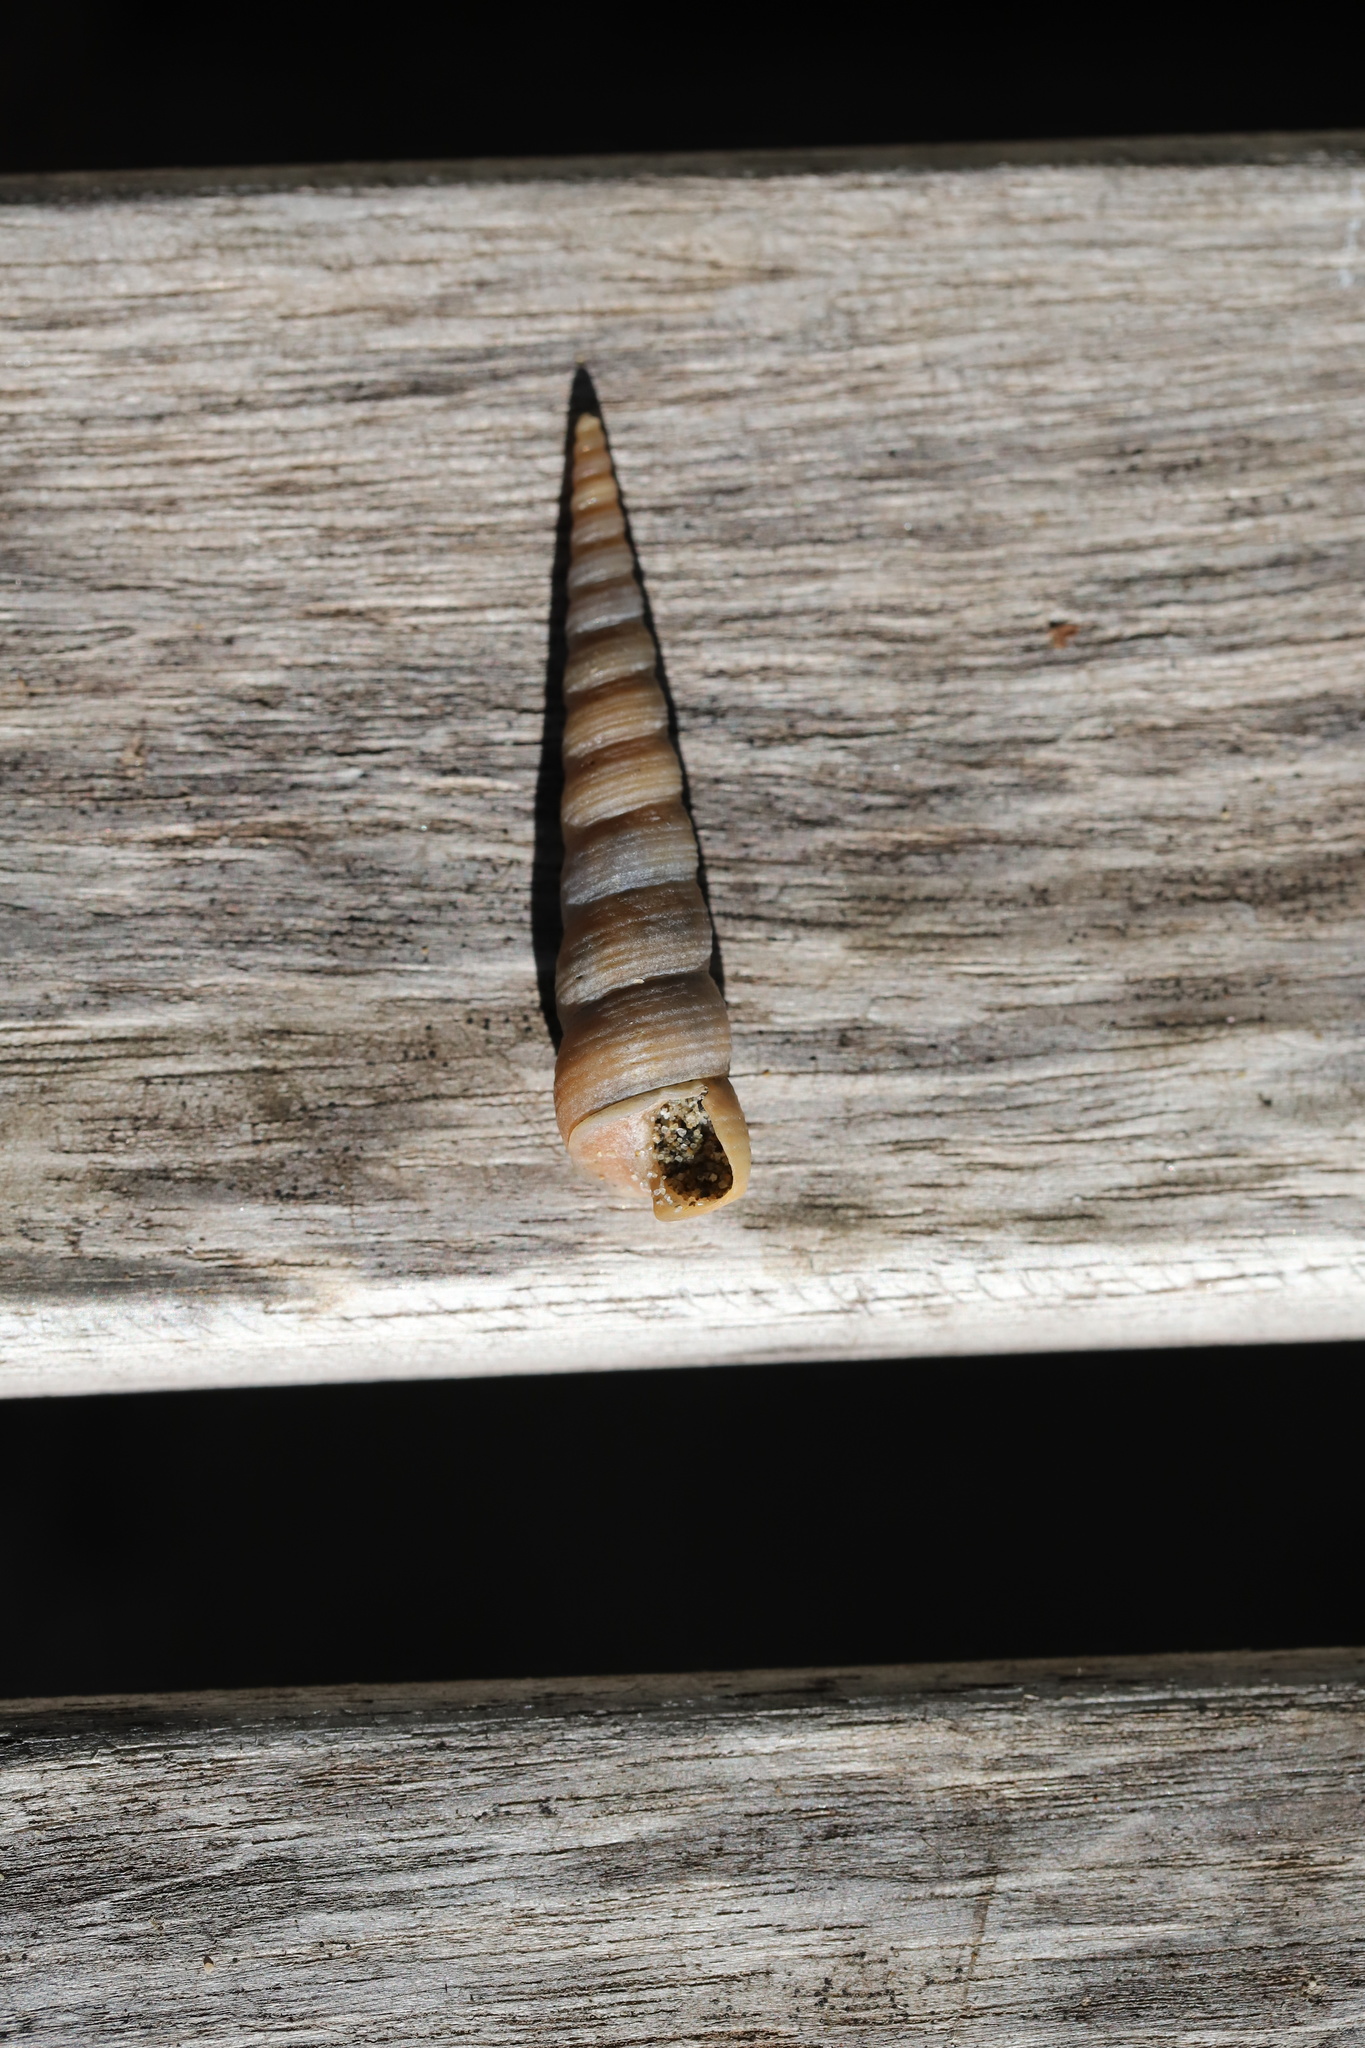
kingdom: Animalia
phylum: Mollusca
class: Gastropoda
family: Turritellidae
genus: Turritellinella
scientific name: Turritellinella tricarinata
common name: Auger shell
